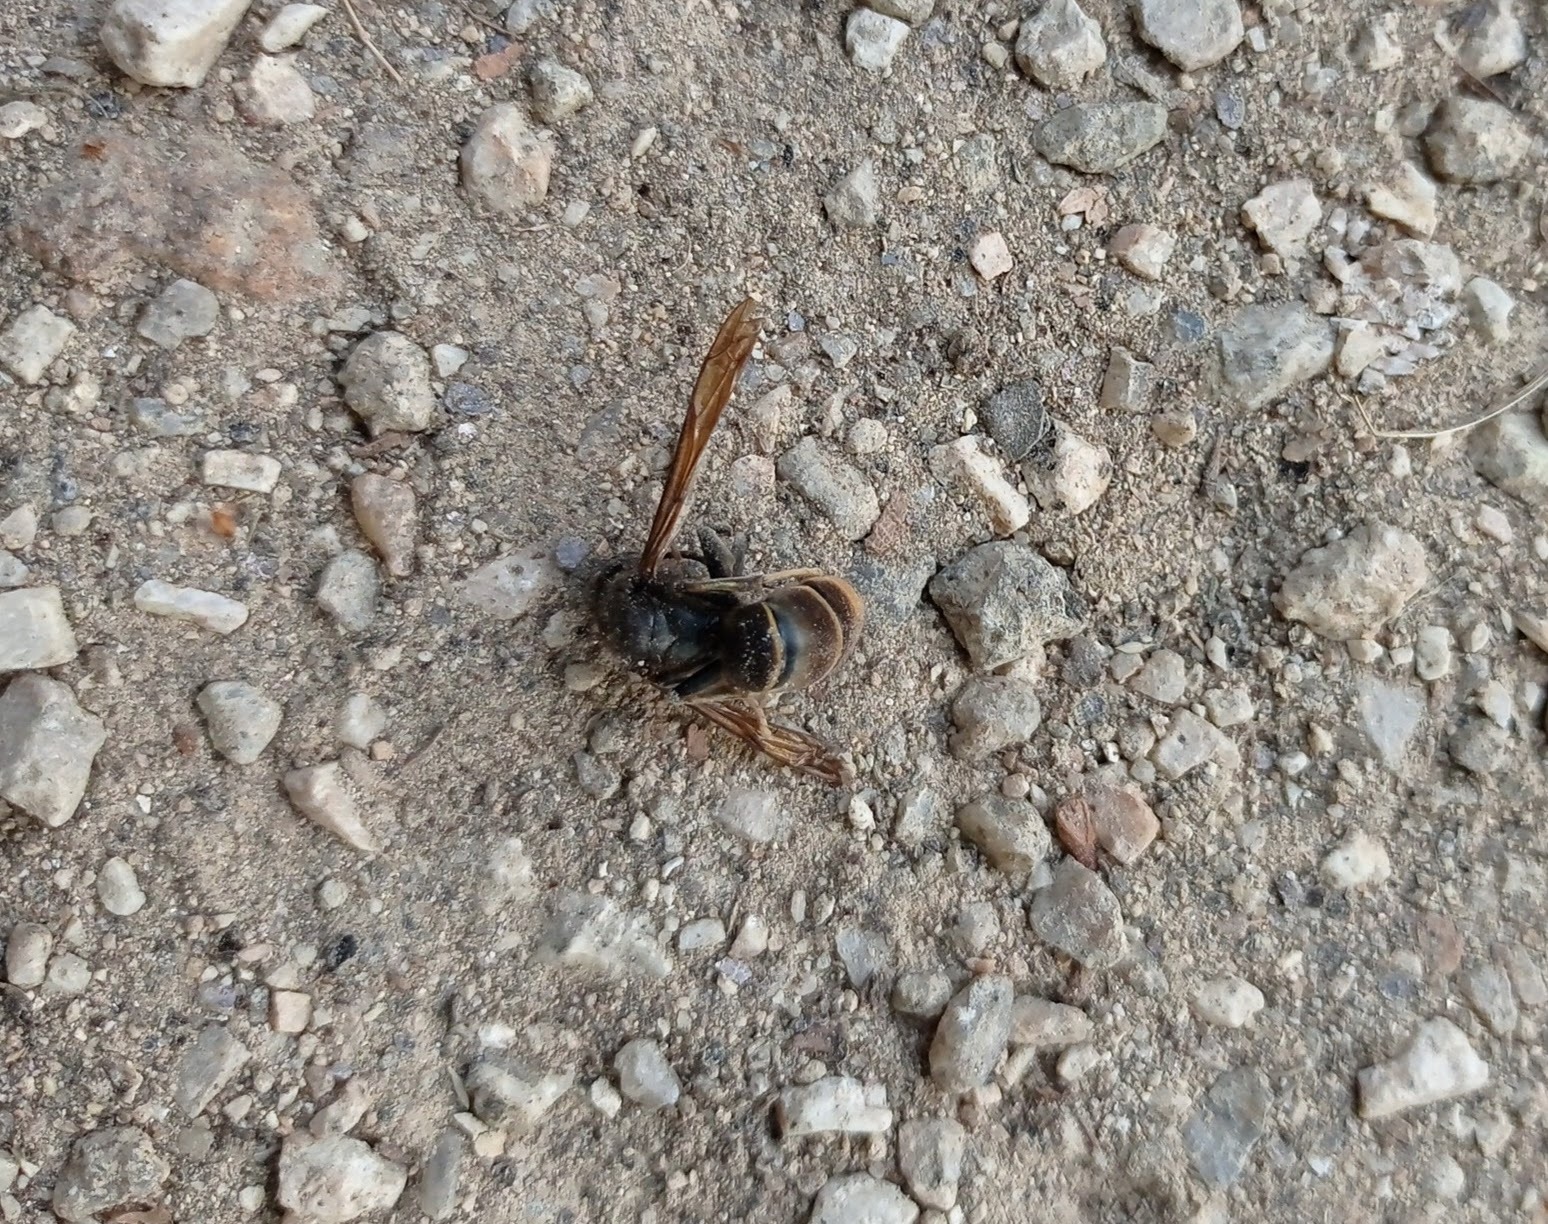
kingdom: Animalia
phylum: Arthropoda
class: Insecta
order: Hymenoptera
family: Vespidae
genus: Vespa
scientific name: Vespa velutina
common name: Asian hornet
